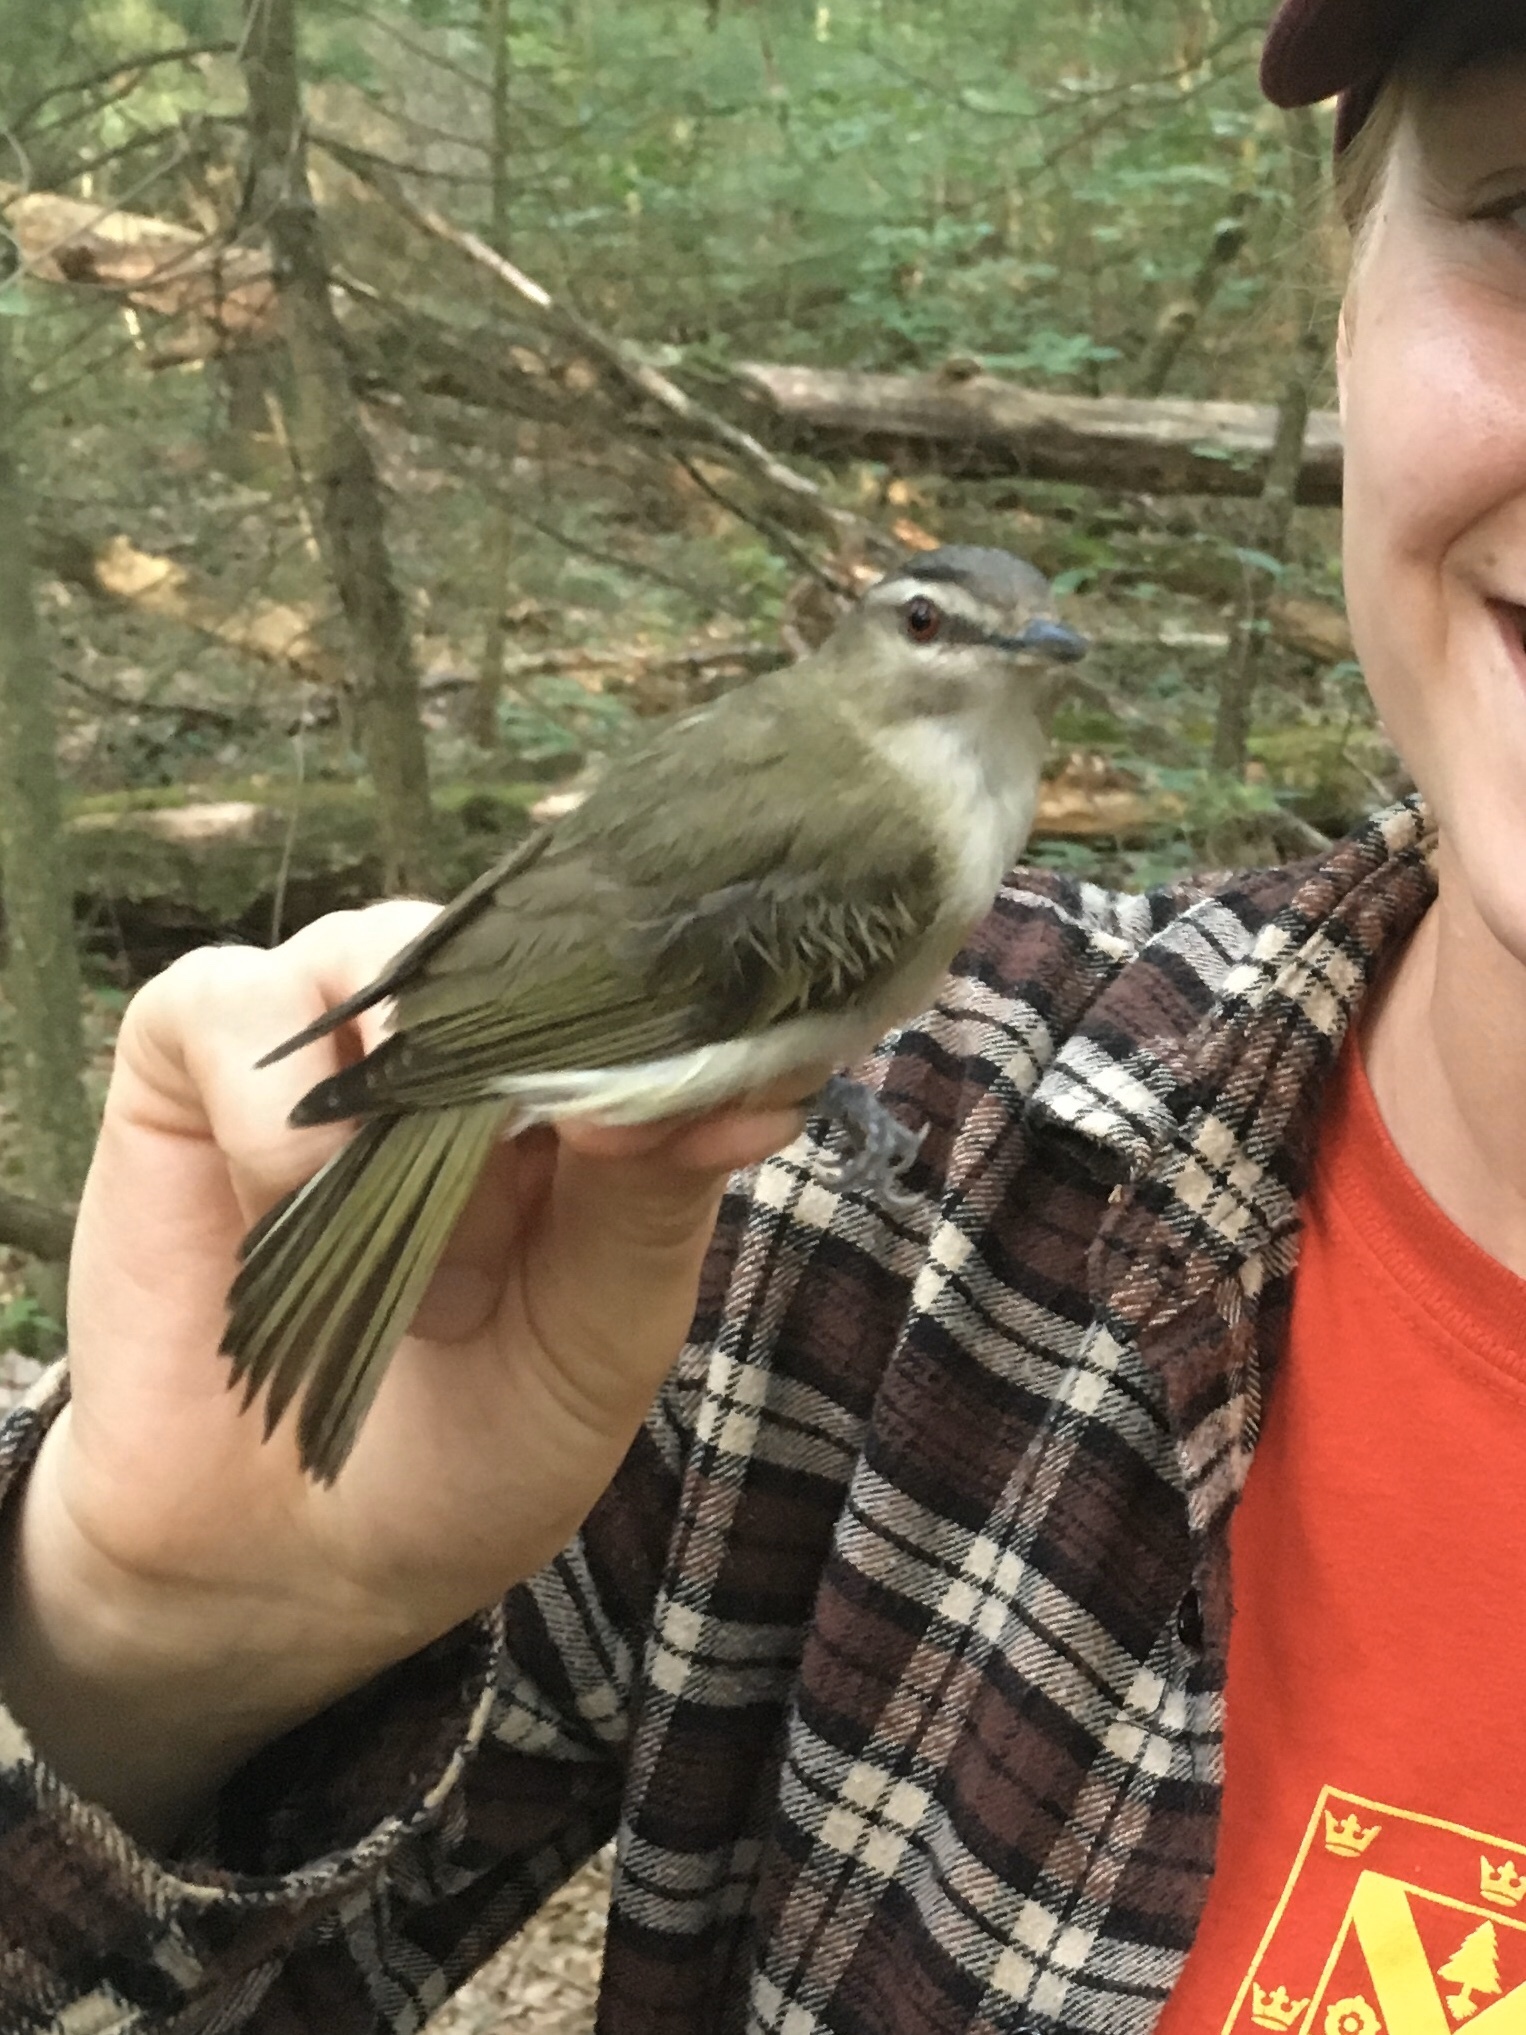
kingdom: Animalia
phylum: Chordata
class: Aves
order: Passeriformes
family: Vireonidae
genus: Vireo
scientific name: Vireo olivaceus
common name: Red-eyed vireo
